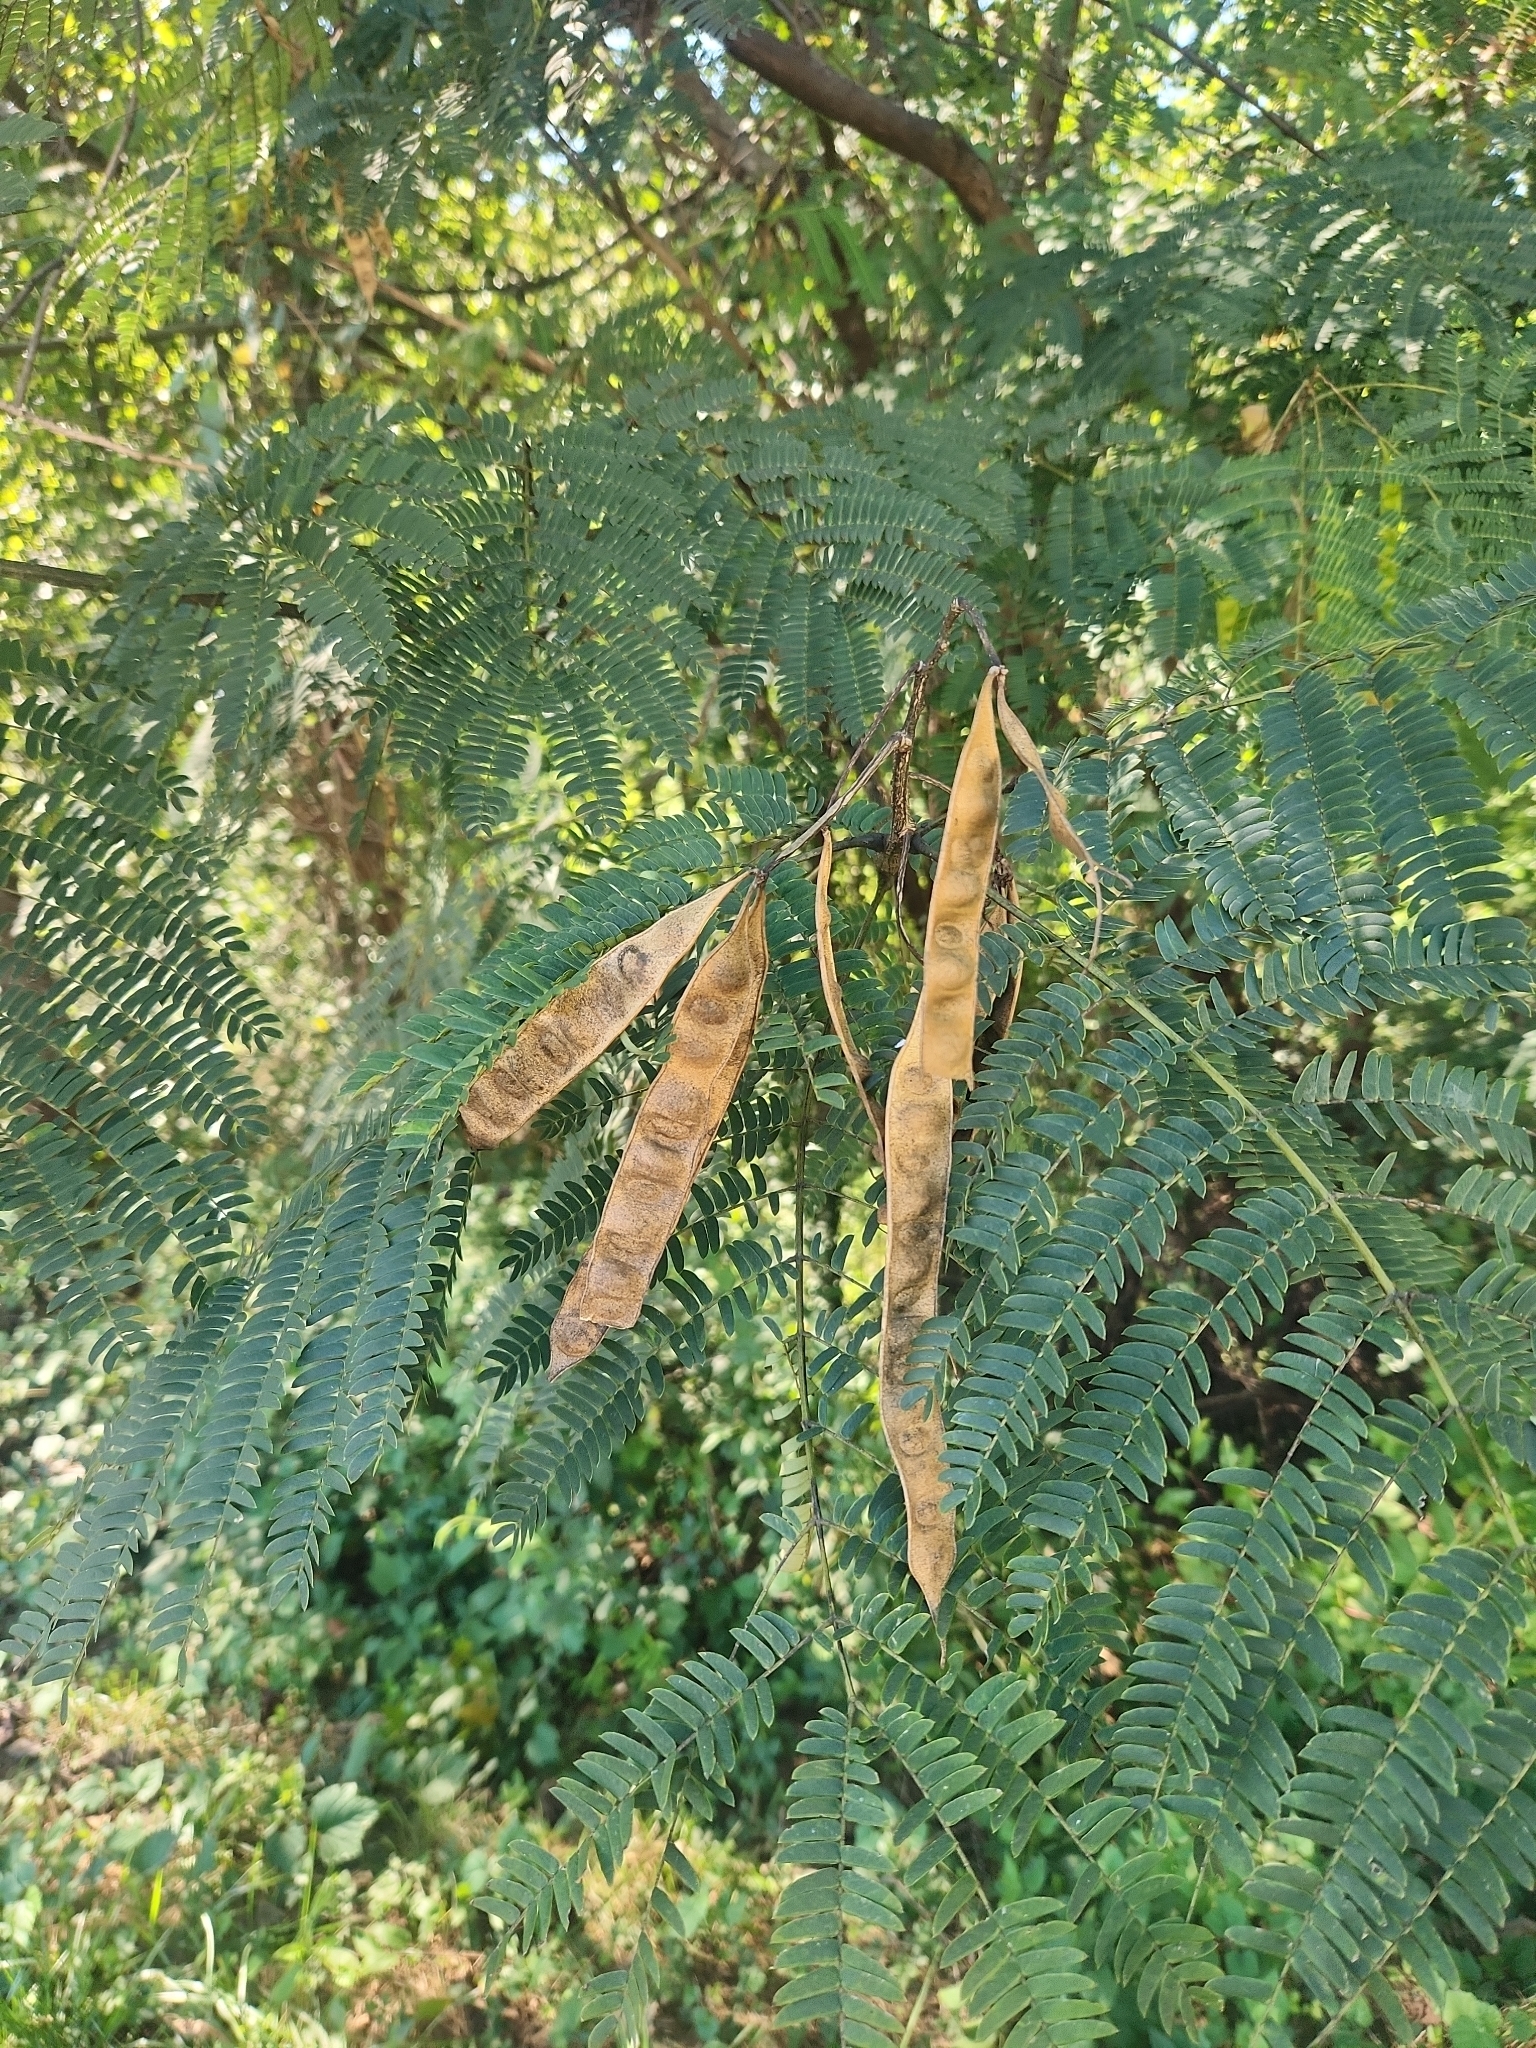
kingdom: Plantae
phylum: Tracheophyta
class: Magnoliopsida
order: Fabales
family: Fabaceae
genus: Albizia
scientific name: Albizia julibrissin
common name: Silktree
